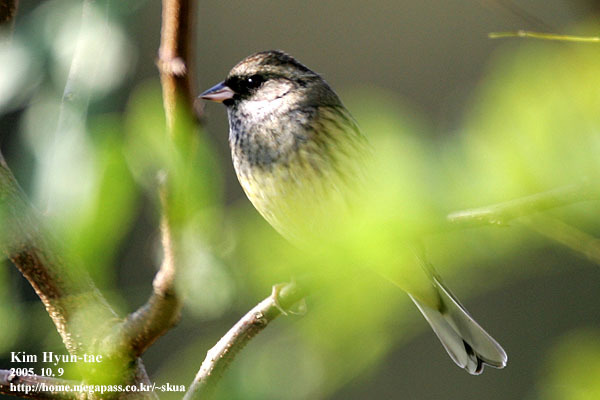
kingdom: Animalia
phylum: Chordata
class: Aves
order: Passeriformes
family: Emberizidae
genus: Emberiza
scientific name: Emberiza spodocephala
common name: Black-faced bunting
